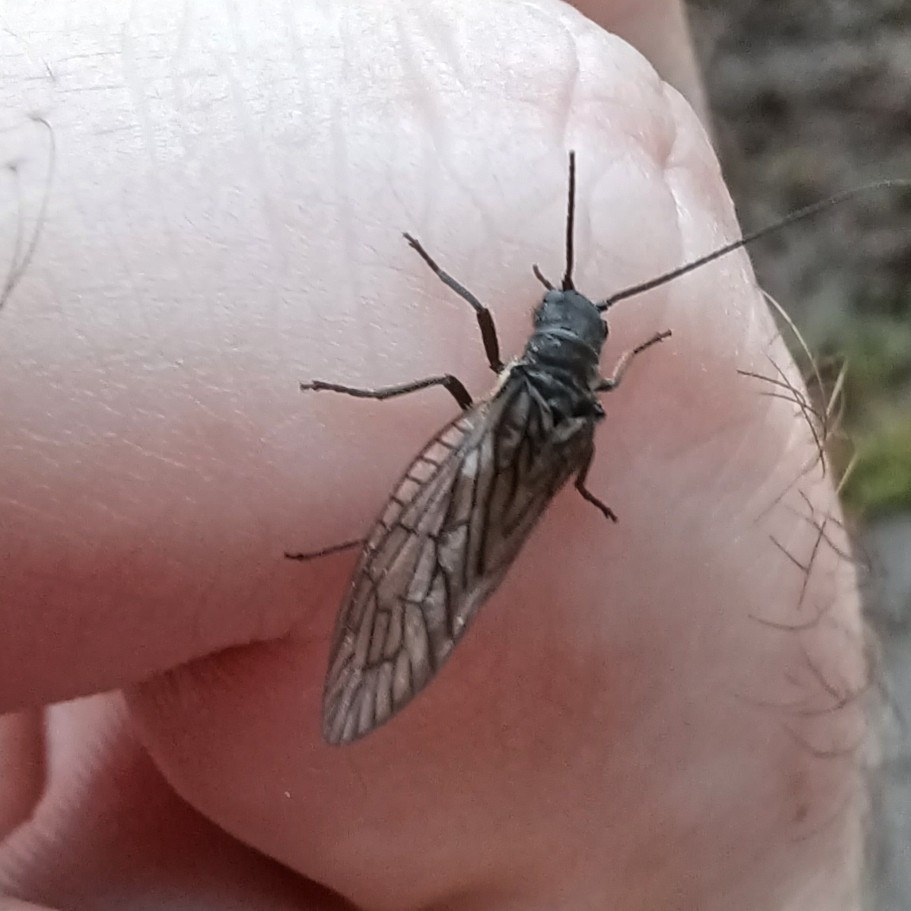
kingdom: Animalia
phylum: Arthropoda
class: Insecta
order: Megaloptera
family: Sialidae
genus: Sialis
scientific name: Sialis
